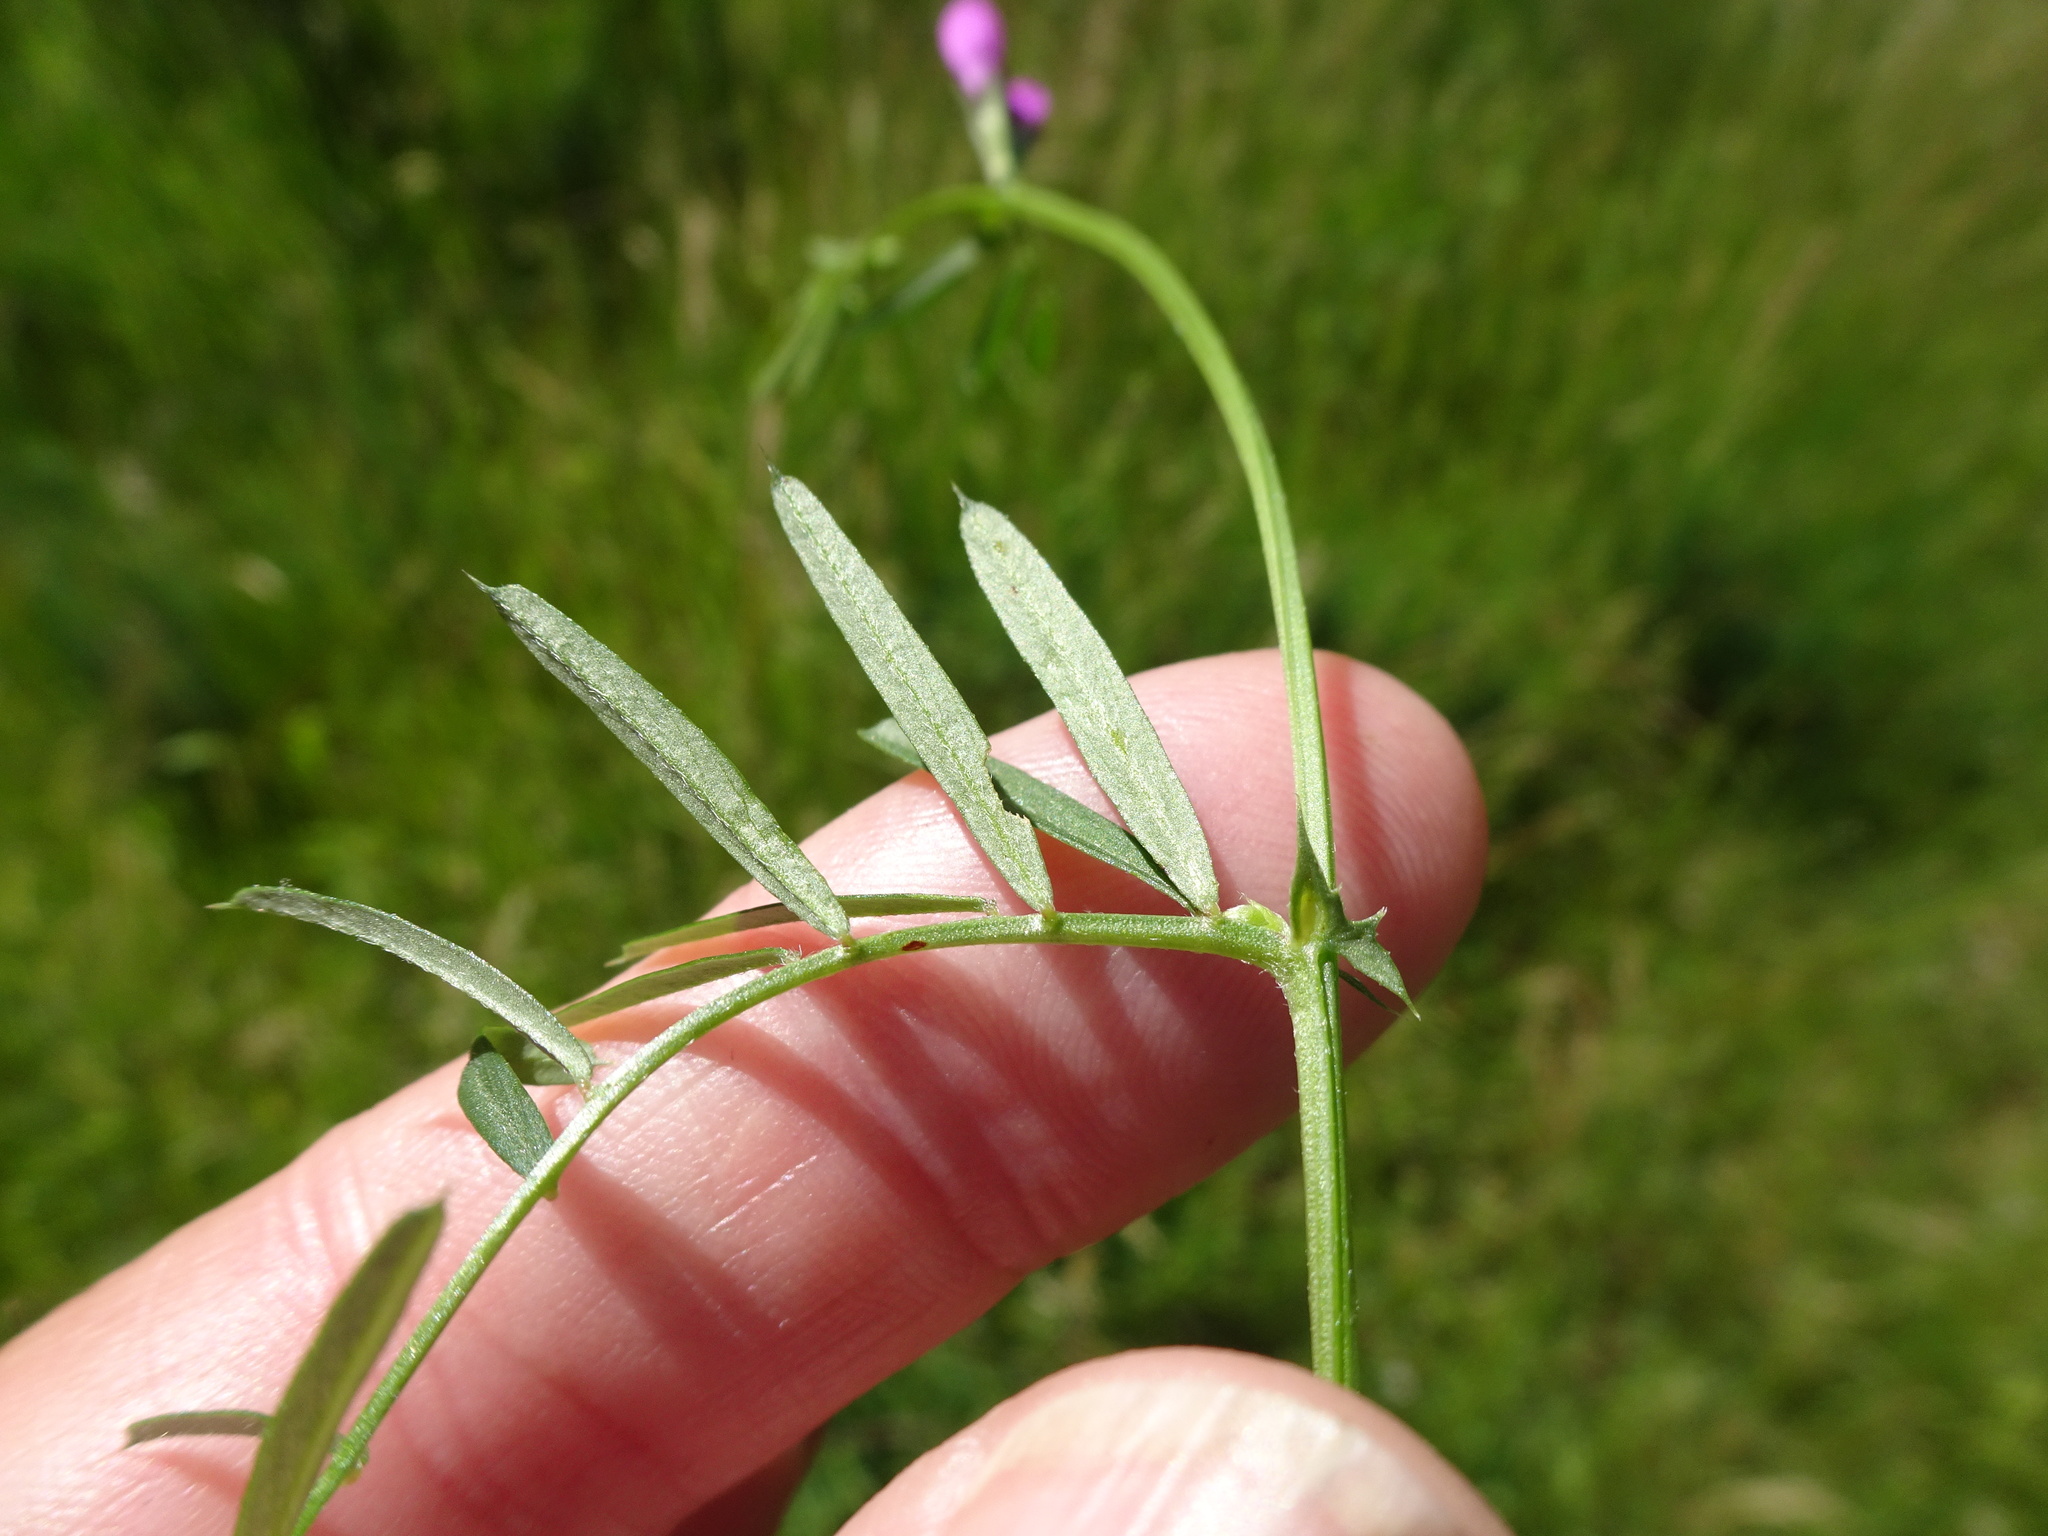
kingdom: Plantae
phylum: Tracheophyta
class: Magnoliopsida
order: Fabales
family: Fabaceae
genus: Vicia
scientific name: Vicia sativa
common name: Garden vetch
